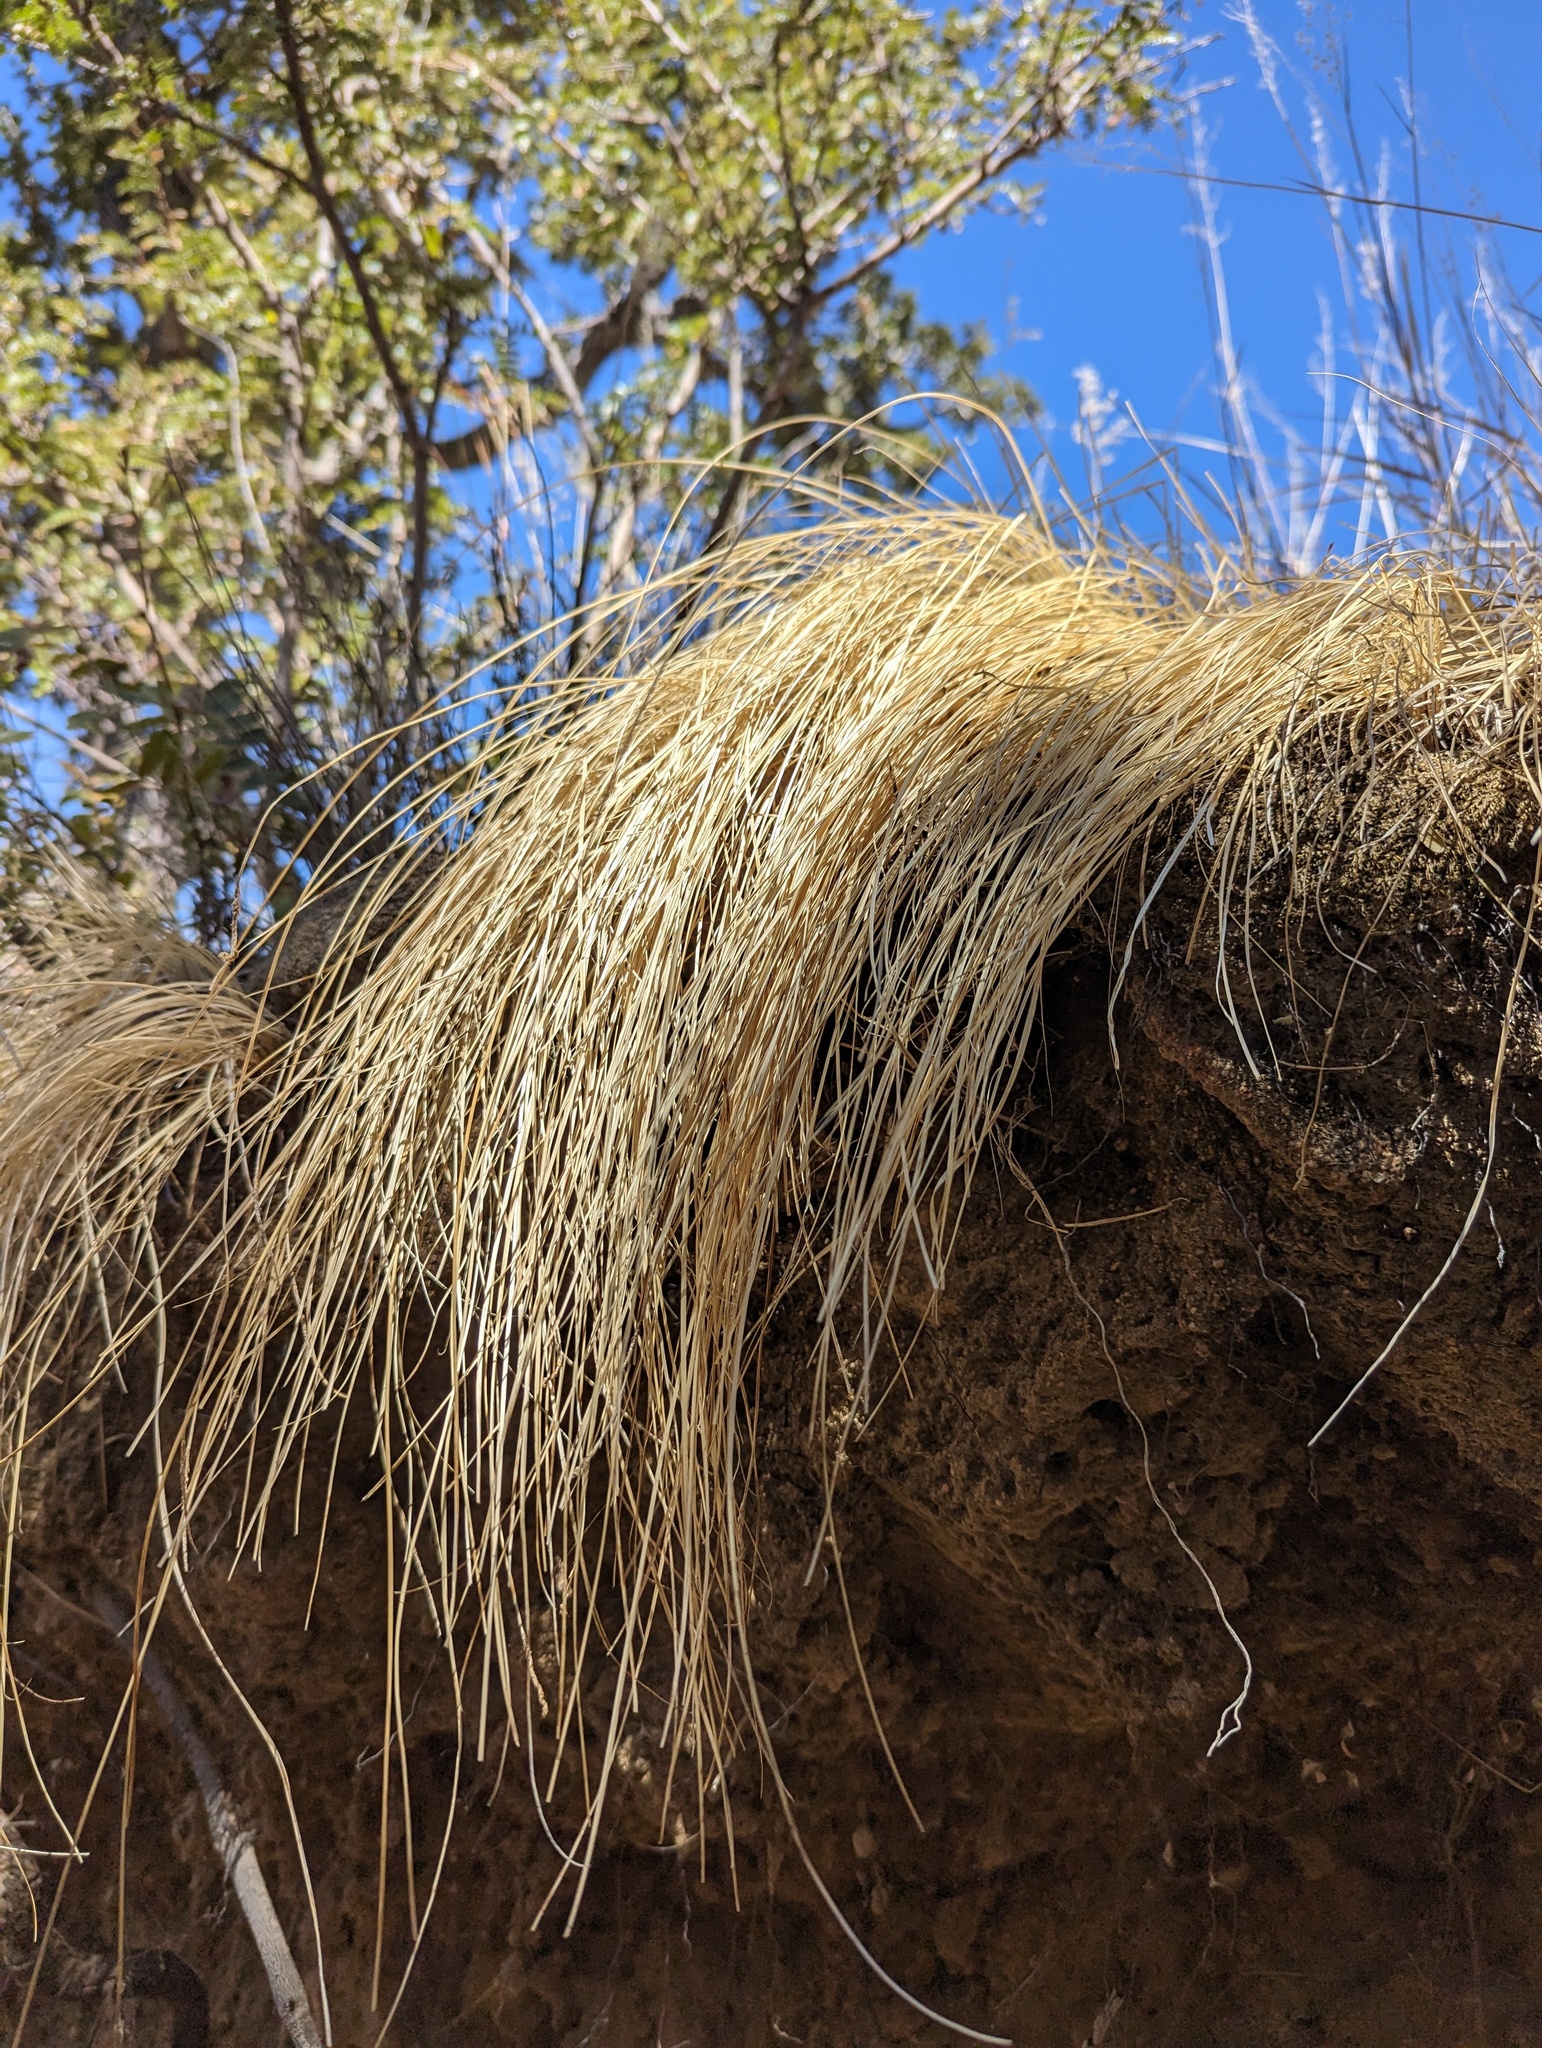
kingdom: Plantae
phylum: Tracheophyta
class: Liliopsida
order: Poales
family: Cyperaceae
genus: Carex
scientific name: Carex longissima
